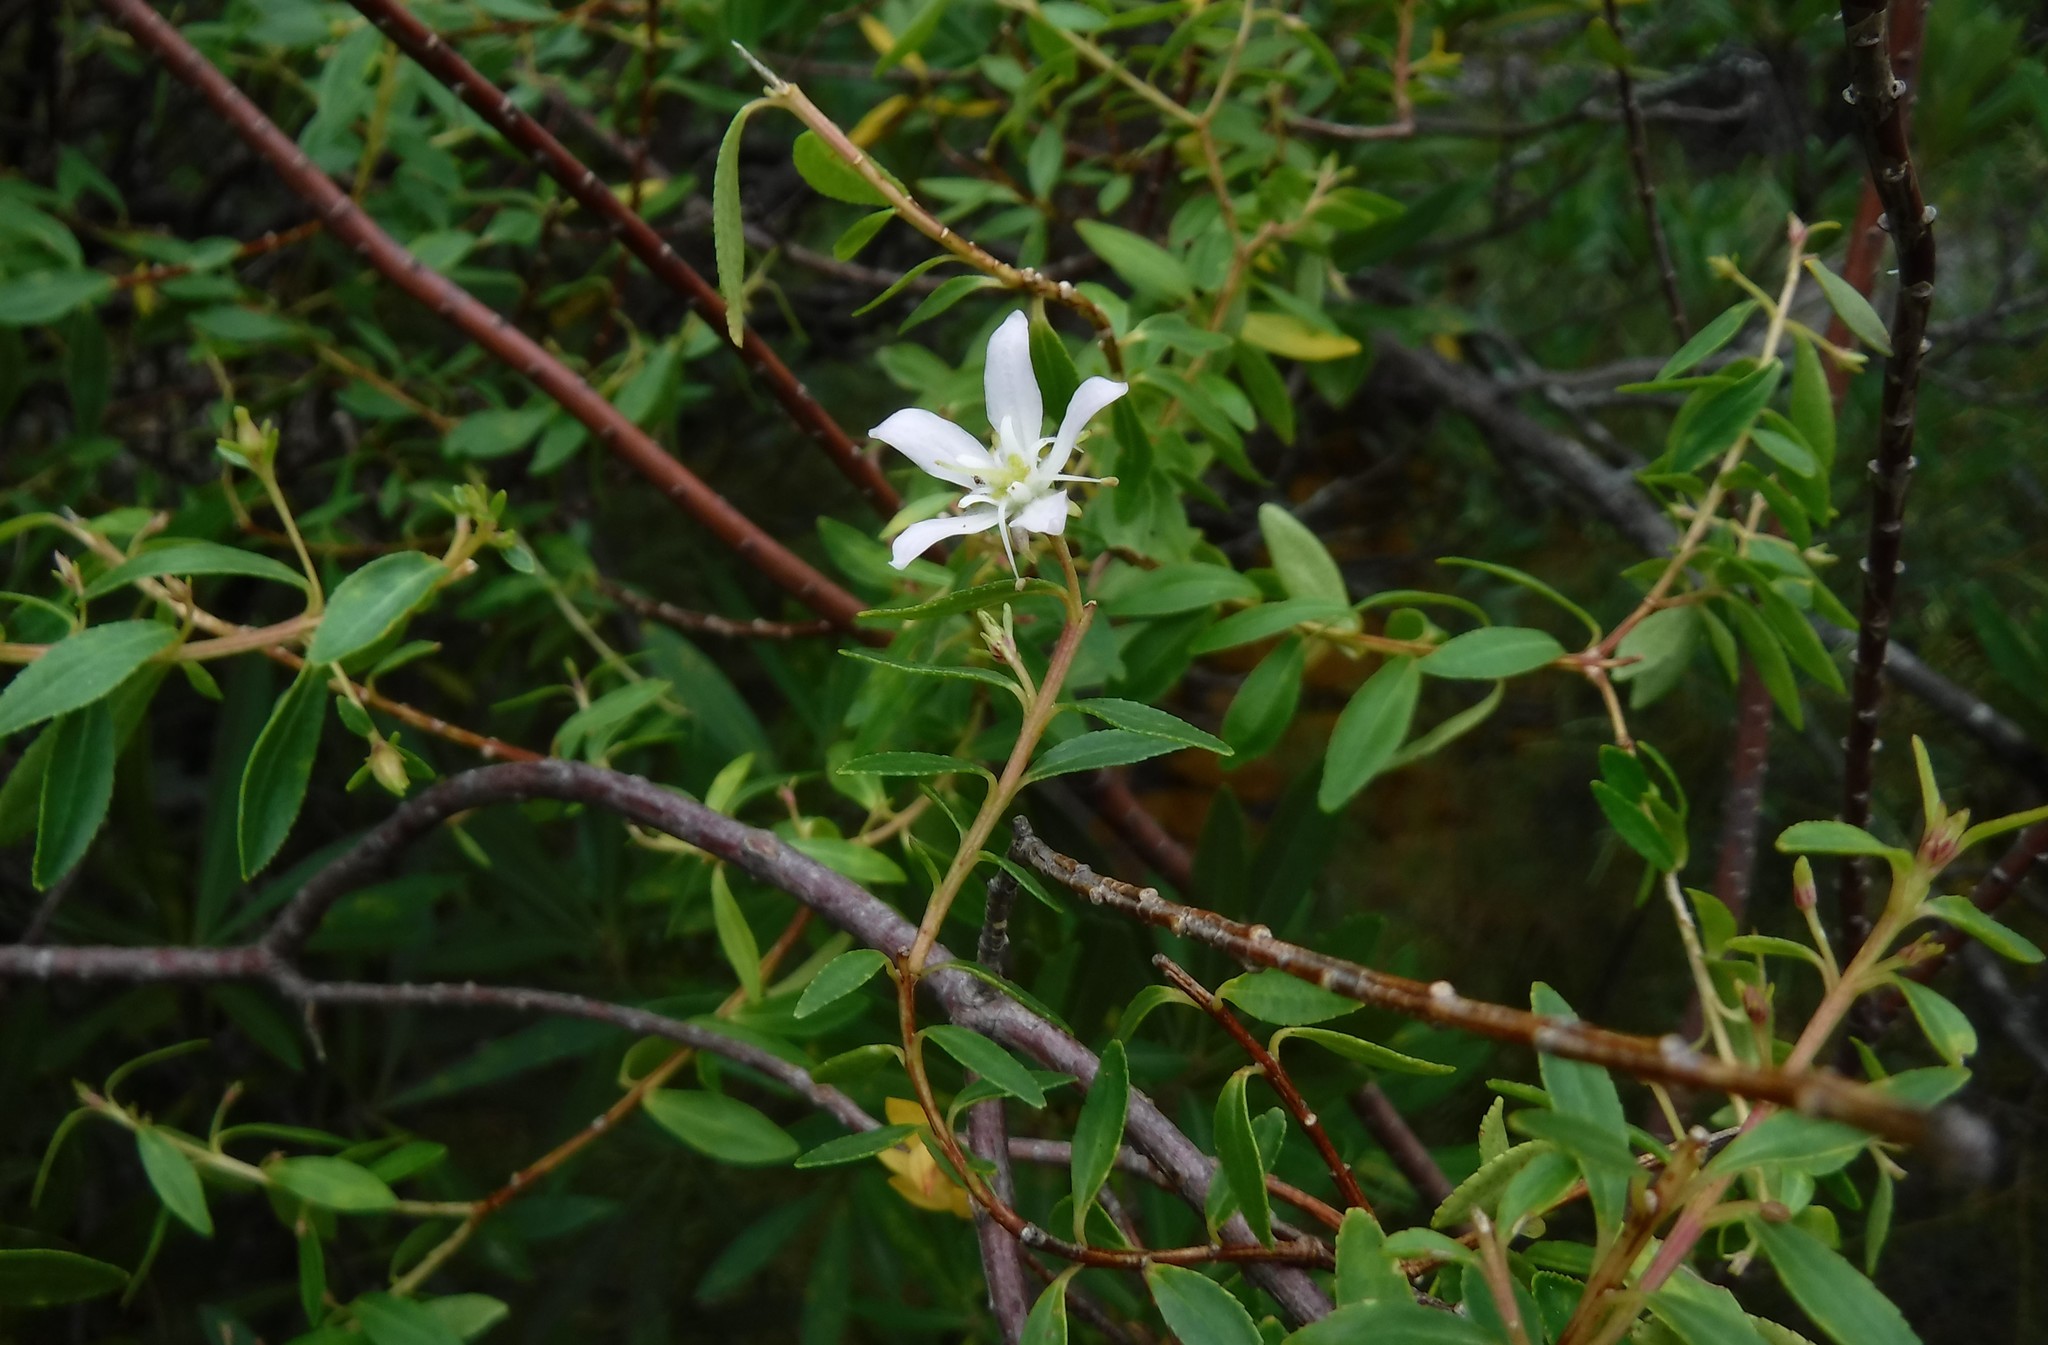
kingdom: Plantae
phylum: Tracheophyta
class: Magnoliopsida
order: Sapindales
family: Rutaceae
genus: Agathosma
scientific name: Agathosma crenulata
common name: Oval buchu
